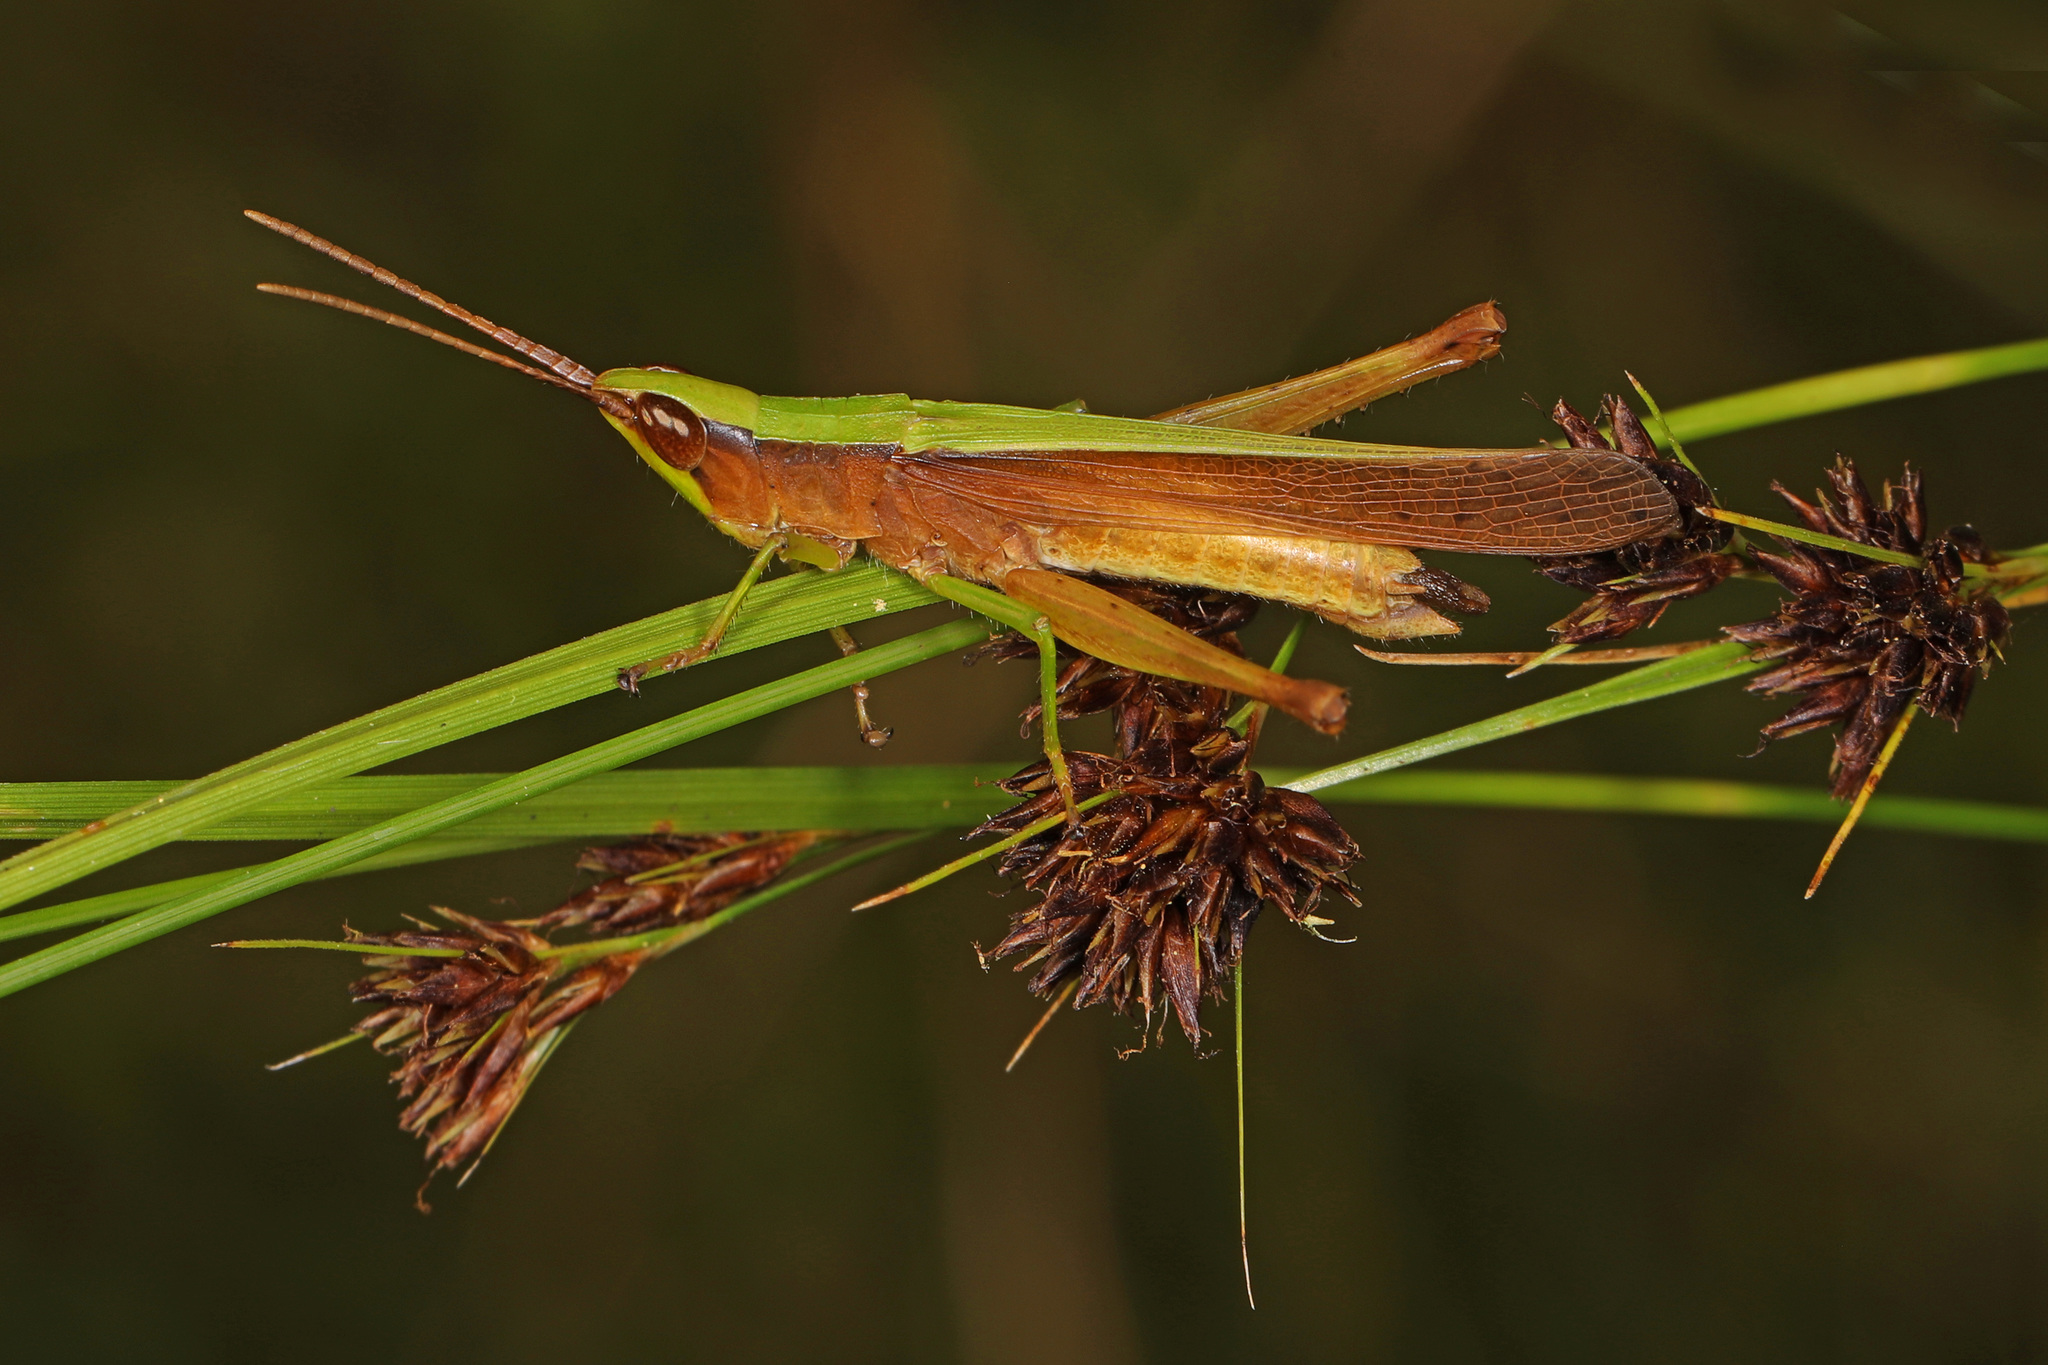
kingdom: Animalia
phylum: Arthropoda
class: Insecta
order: Orthoptera
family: Acrididae
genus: Metaleptea
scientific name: Metaleptea brevicornis
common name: Clipped-wing grasshopper
